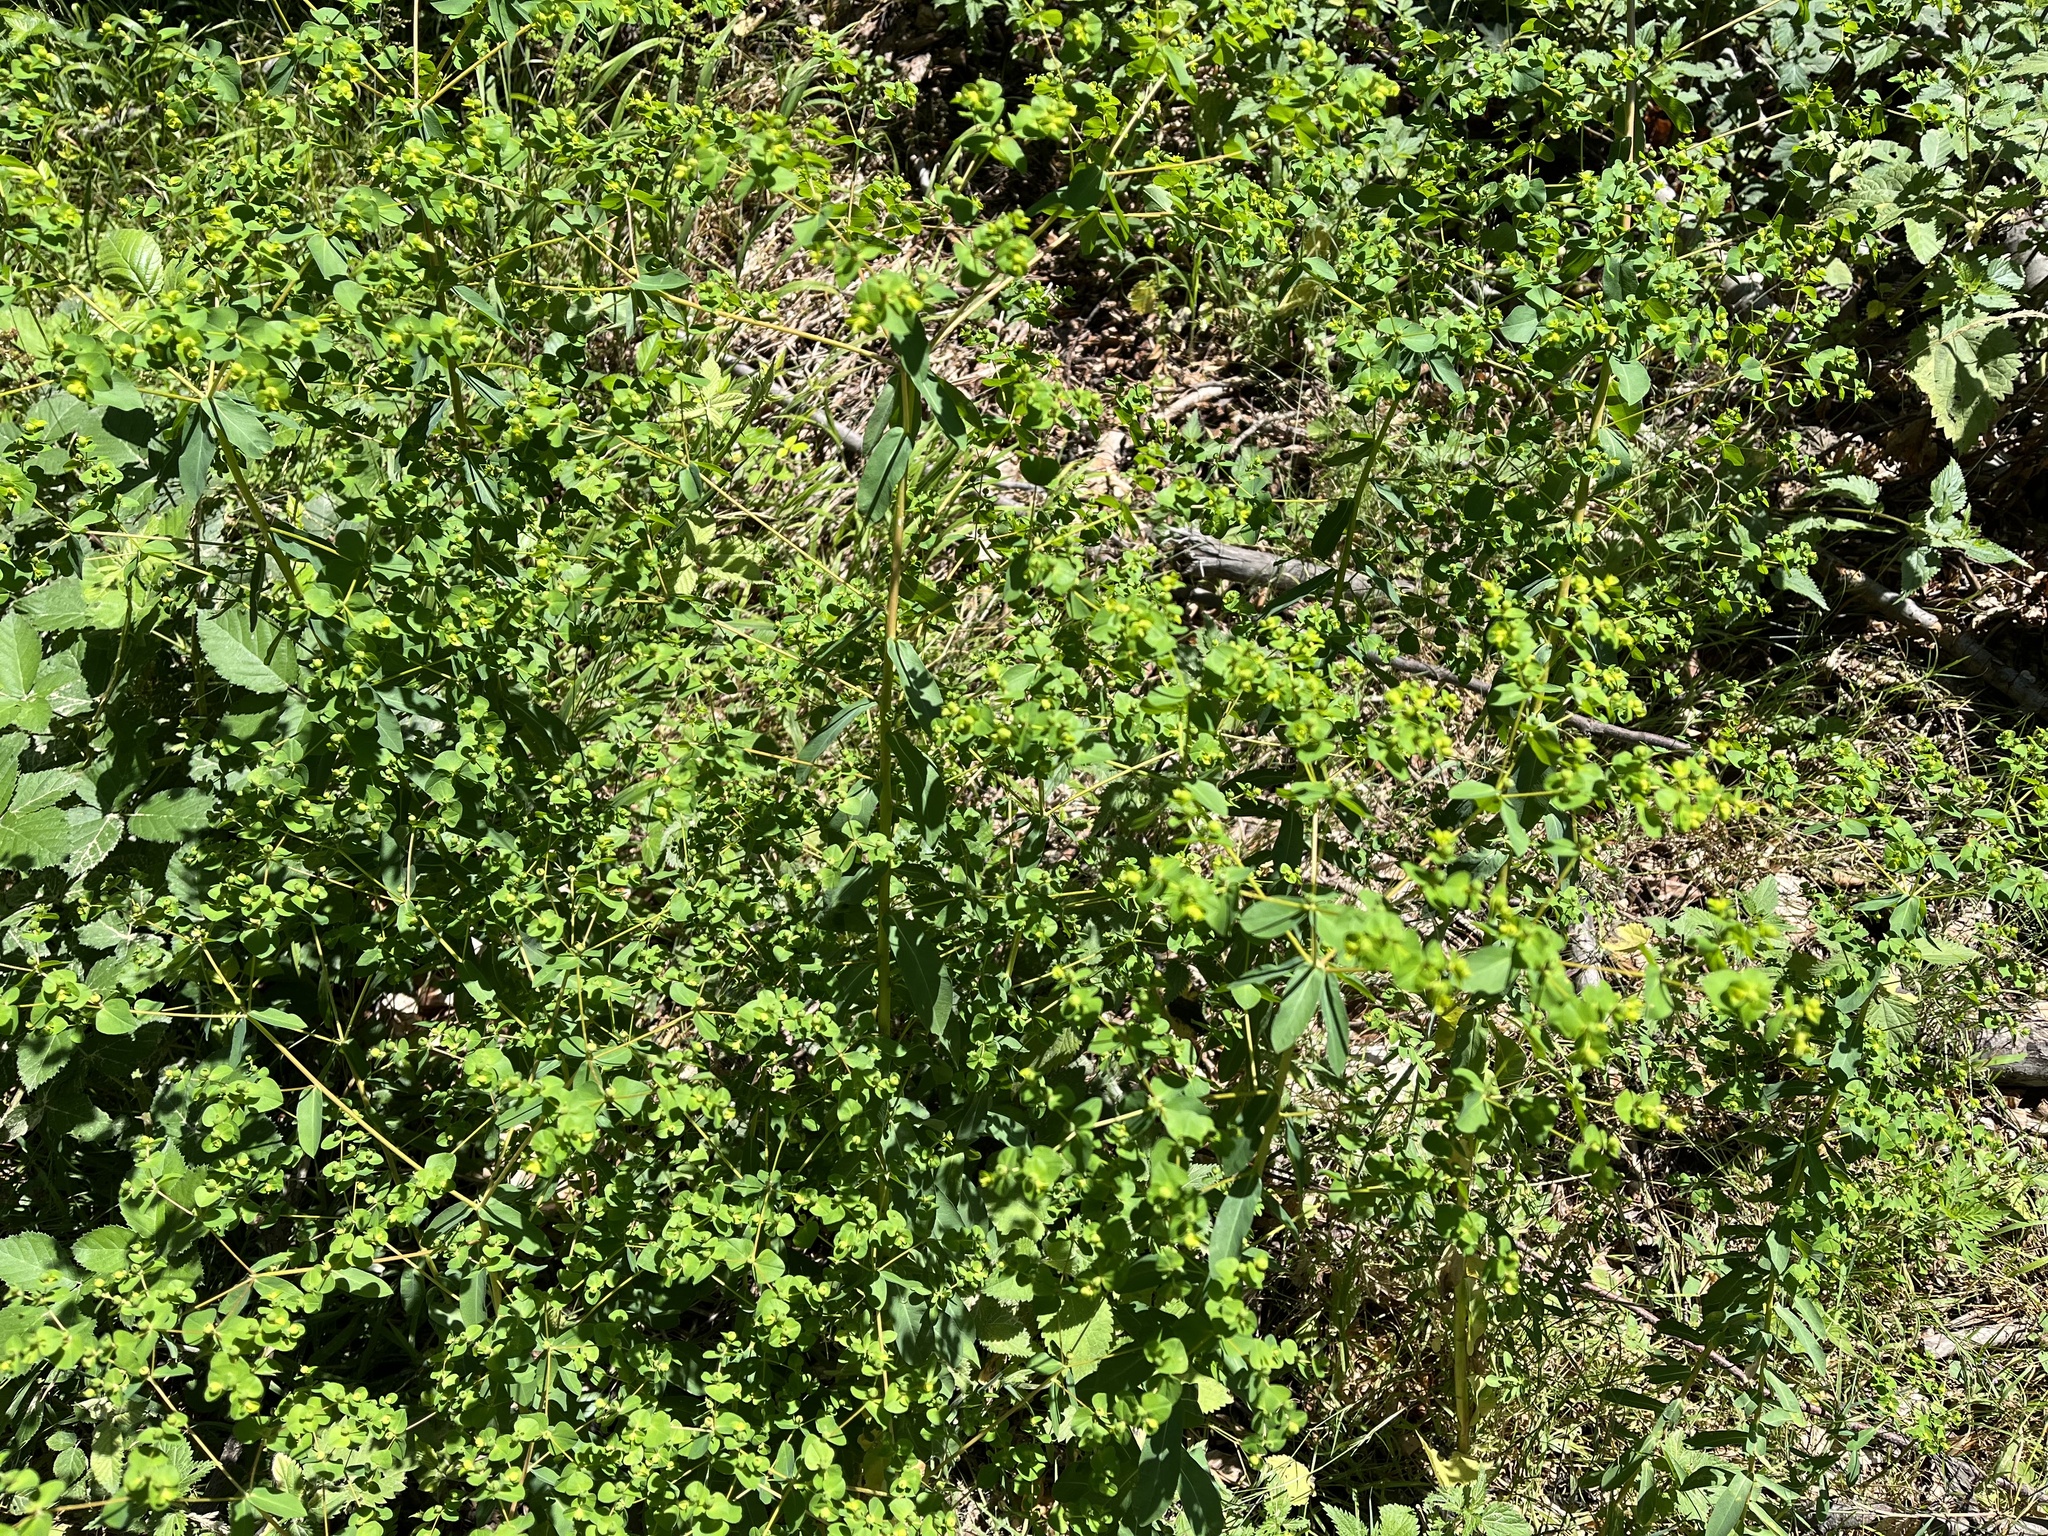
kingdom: Plantae
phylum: Tracheophyta
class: Magnoliopsida
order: Malpighiales
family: Euphorbiaceae
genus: Euphorbia
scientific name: Euphorbia stricta
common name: Upright spurge
